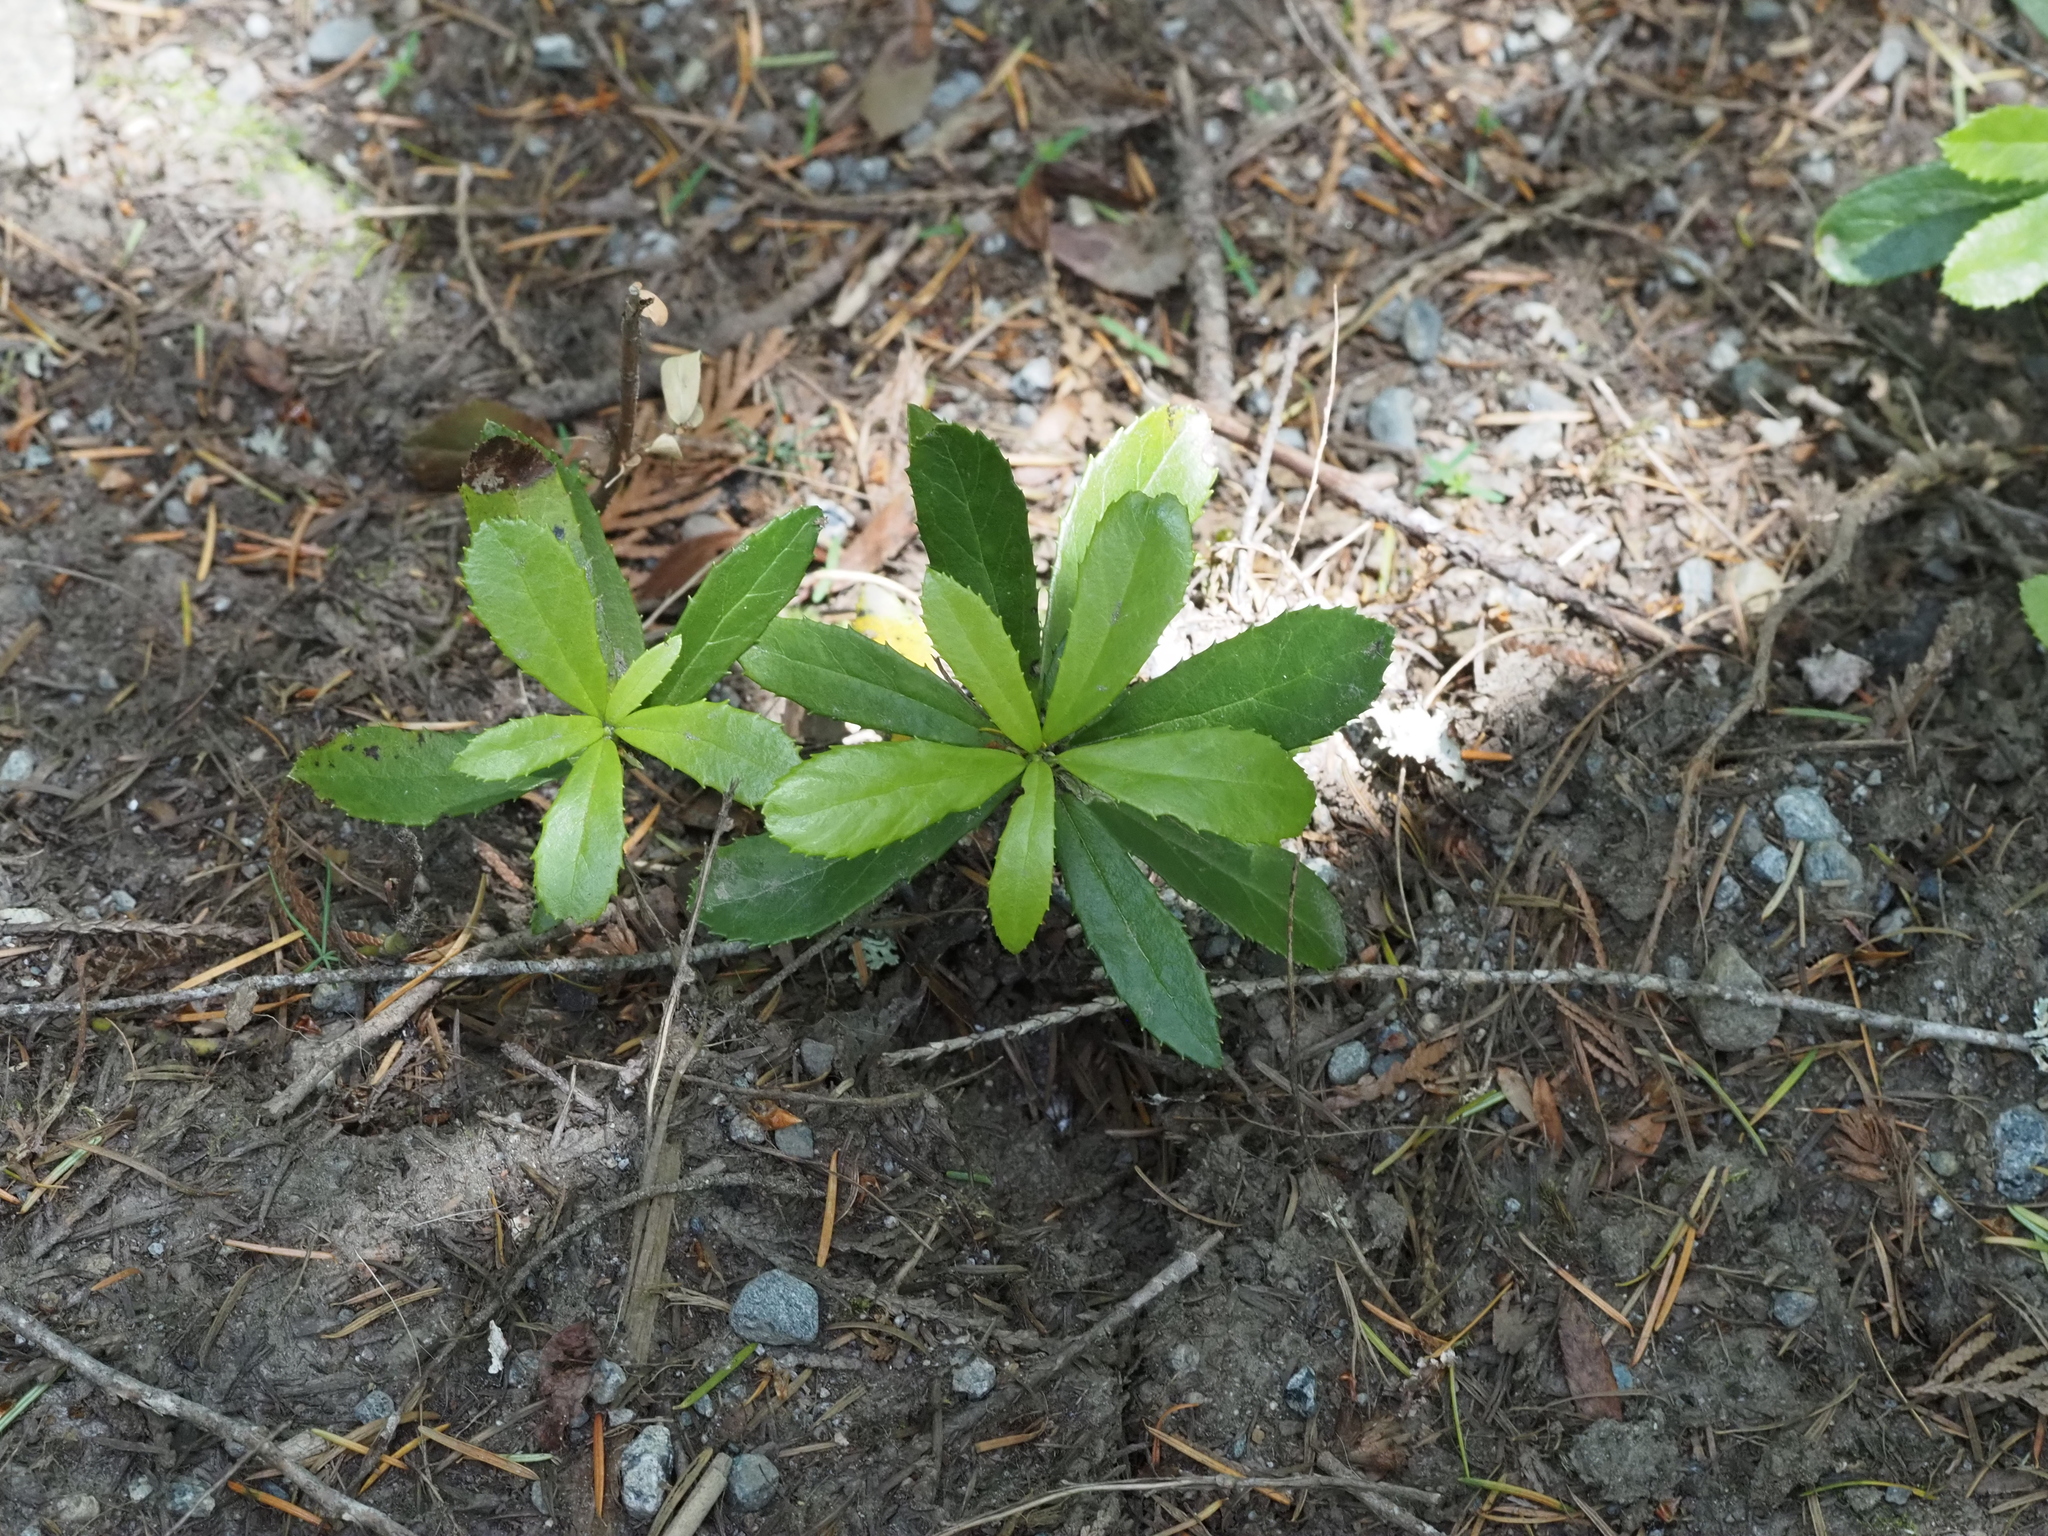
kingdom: Plantae
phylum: Tracheophyta
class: Magnoliopsida
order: Ericales
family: Ericaceae
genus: Chimaphila
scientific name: Chimaphila umbellata
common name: Pipsissewa
